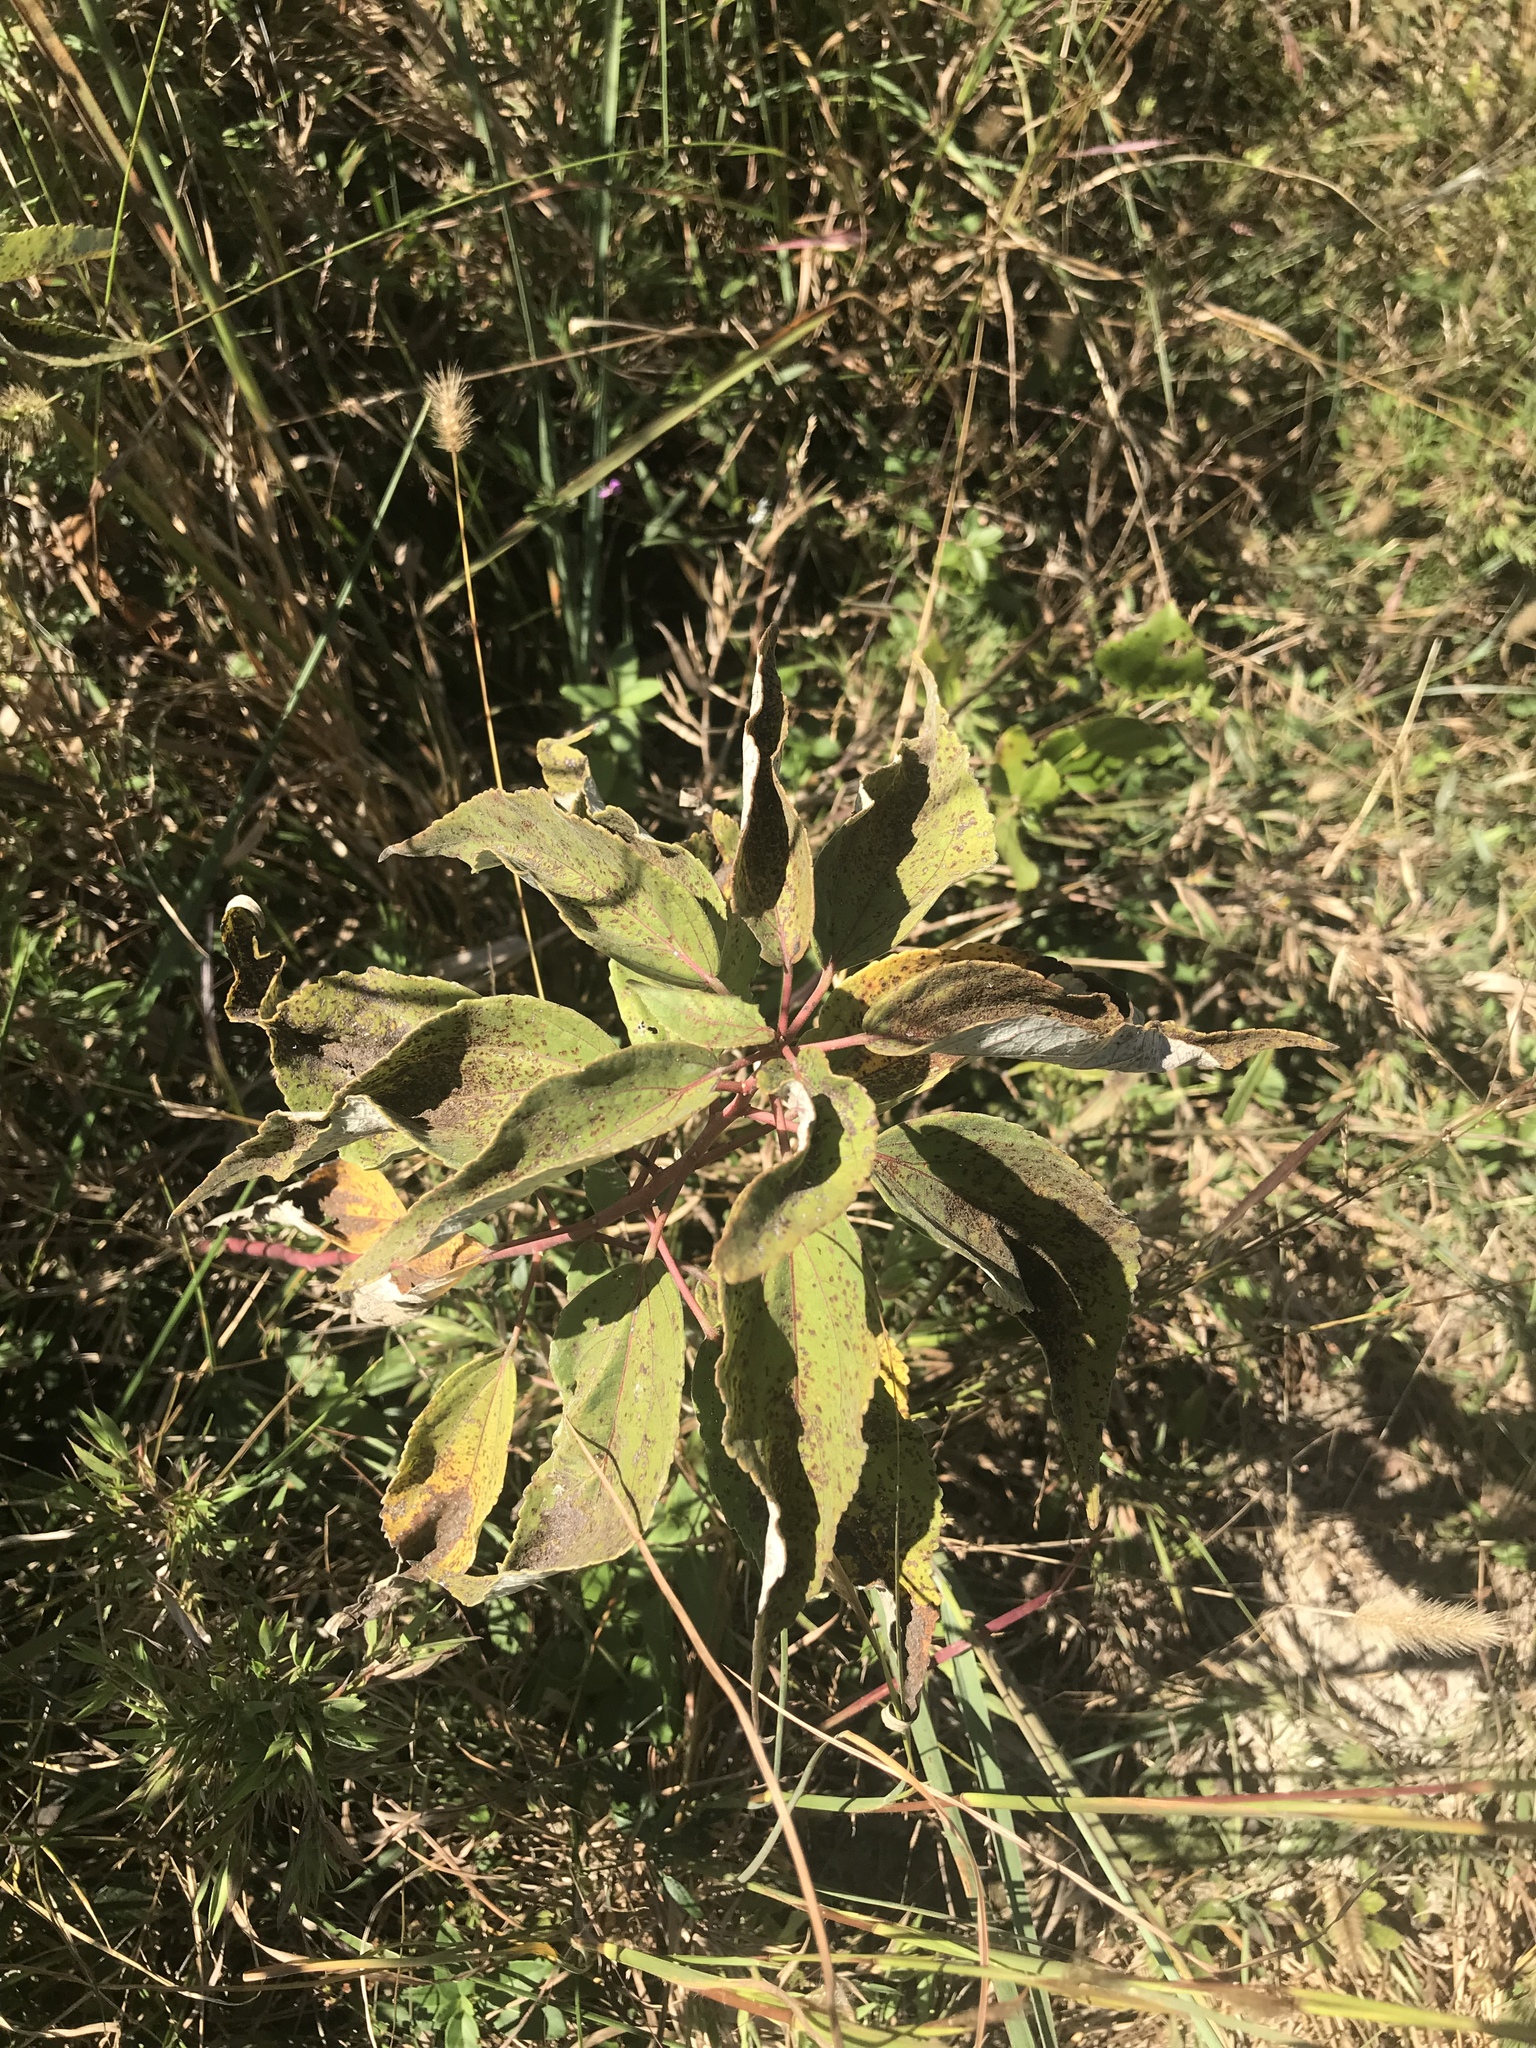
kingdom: Plantae
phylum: Tracheophyta
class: Magnoliopsida
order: Malvales
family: Malvaceae
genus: Hibiscus
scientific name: Hibiscus moscheutos
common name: Common rose-mallow
